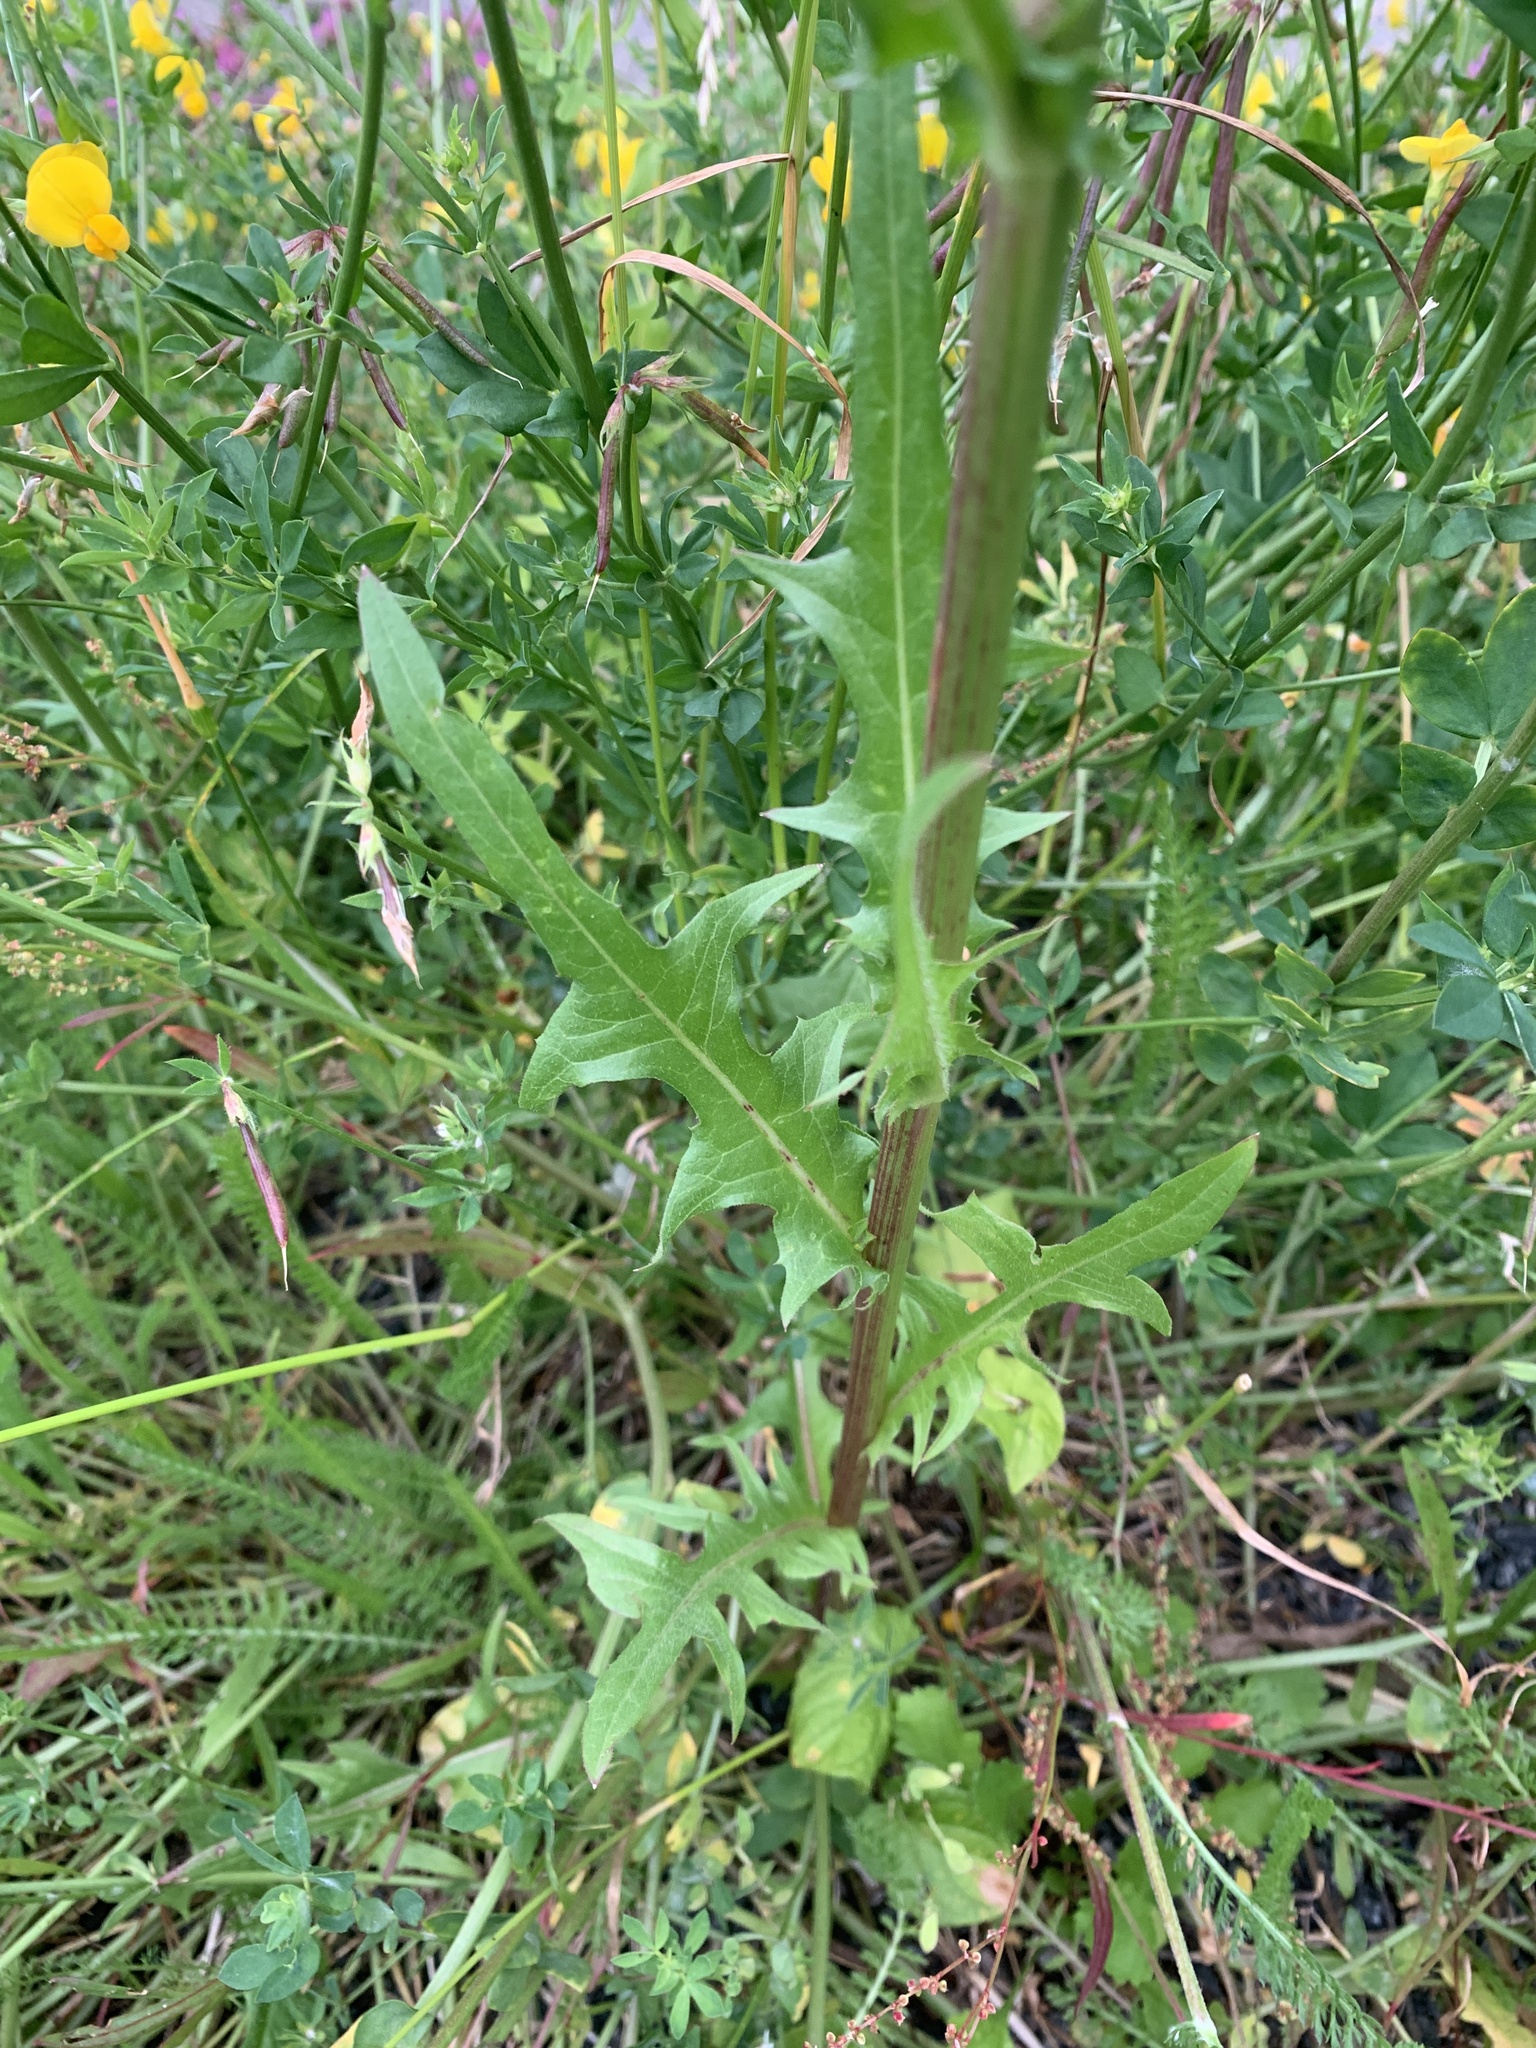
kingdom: Plantae
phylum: Tracheophyta
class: Magnoliopsida
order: Asterales
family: Asteraceae
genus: Cichorium
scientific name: Cichorium intybus
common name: Chicory
